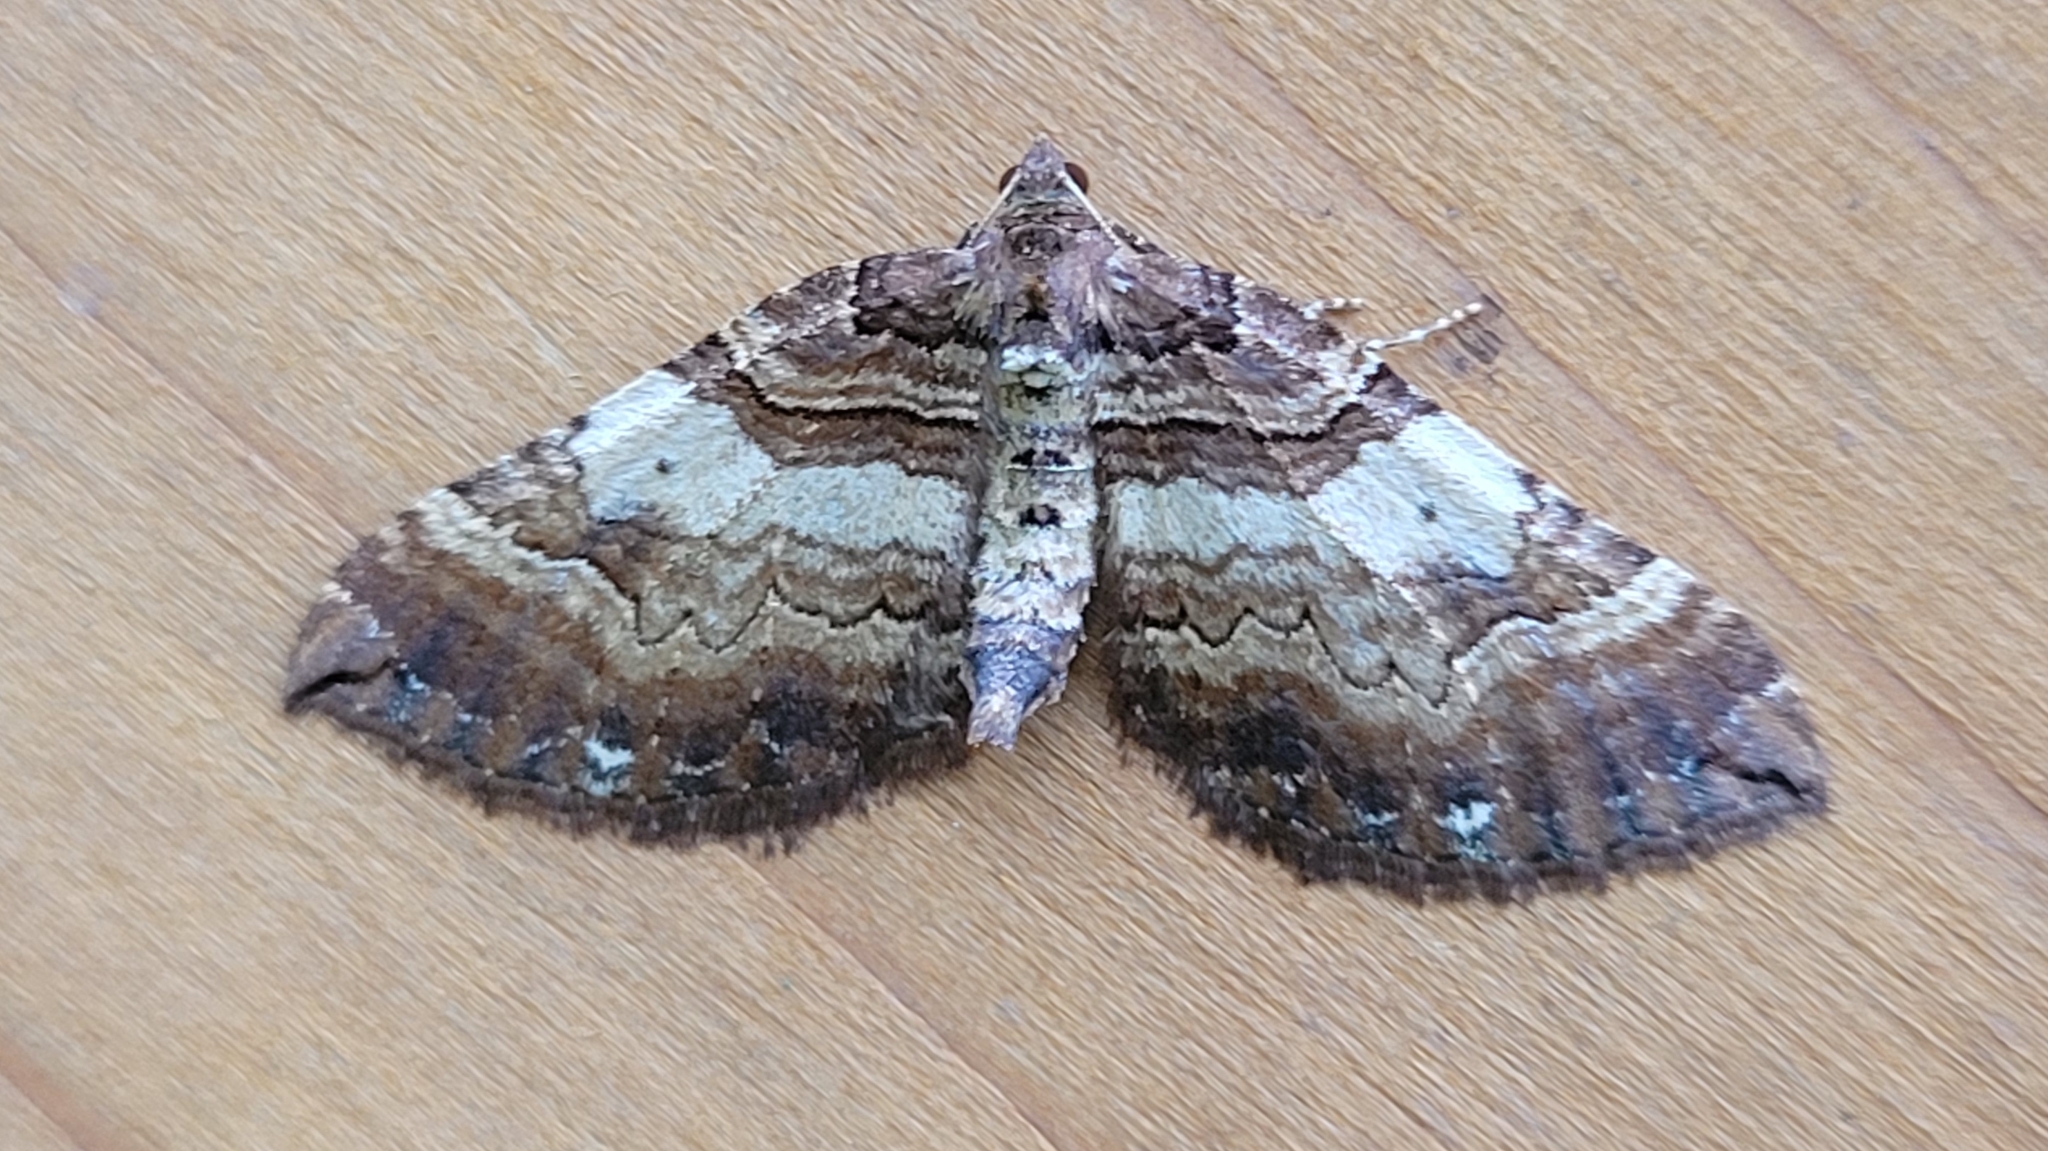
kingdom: Animalia
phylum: Arthropoda
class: Insecta
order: Lepidoptera
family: Geometridae
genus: Anticlea
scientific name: Anticlea badiata
